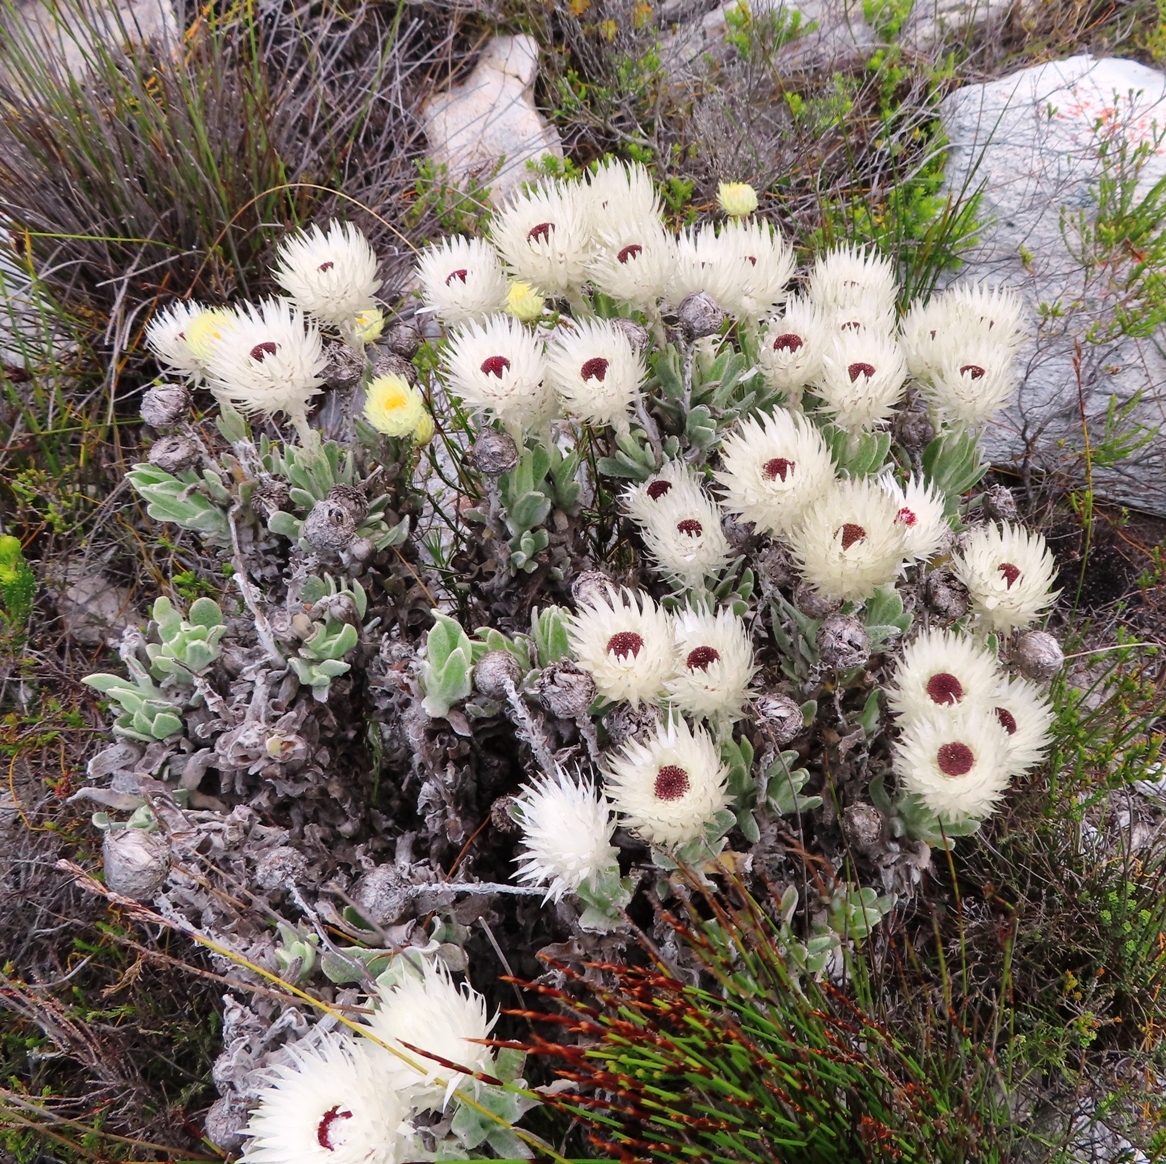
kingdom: Plantae
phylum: Tracheophyta
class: Magnoliopsida
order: Asterales
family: Asteraceae
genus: Syncarpha
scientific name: Syncarpha vestita
